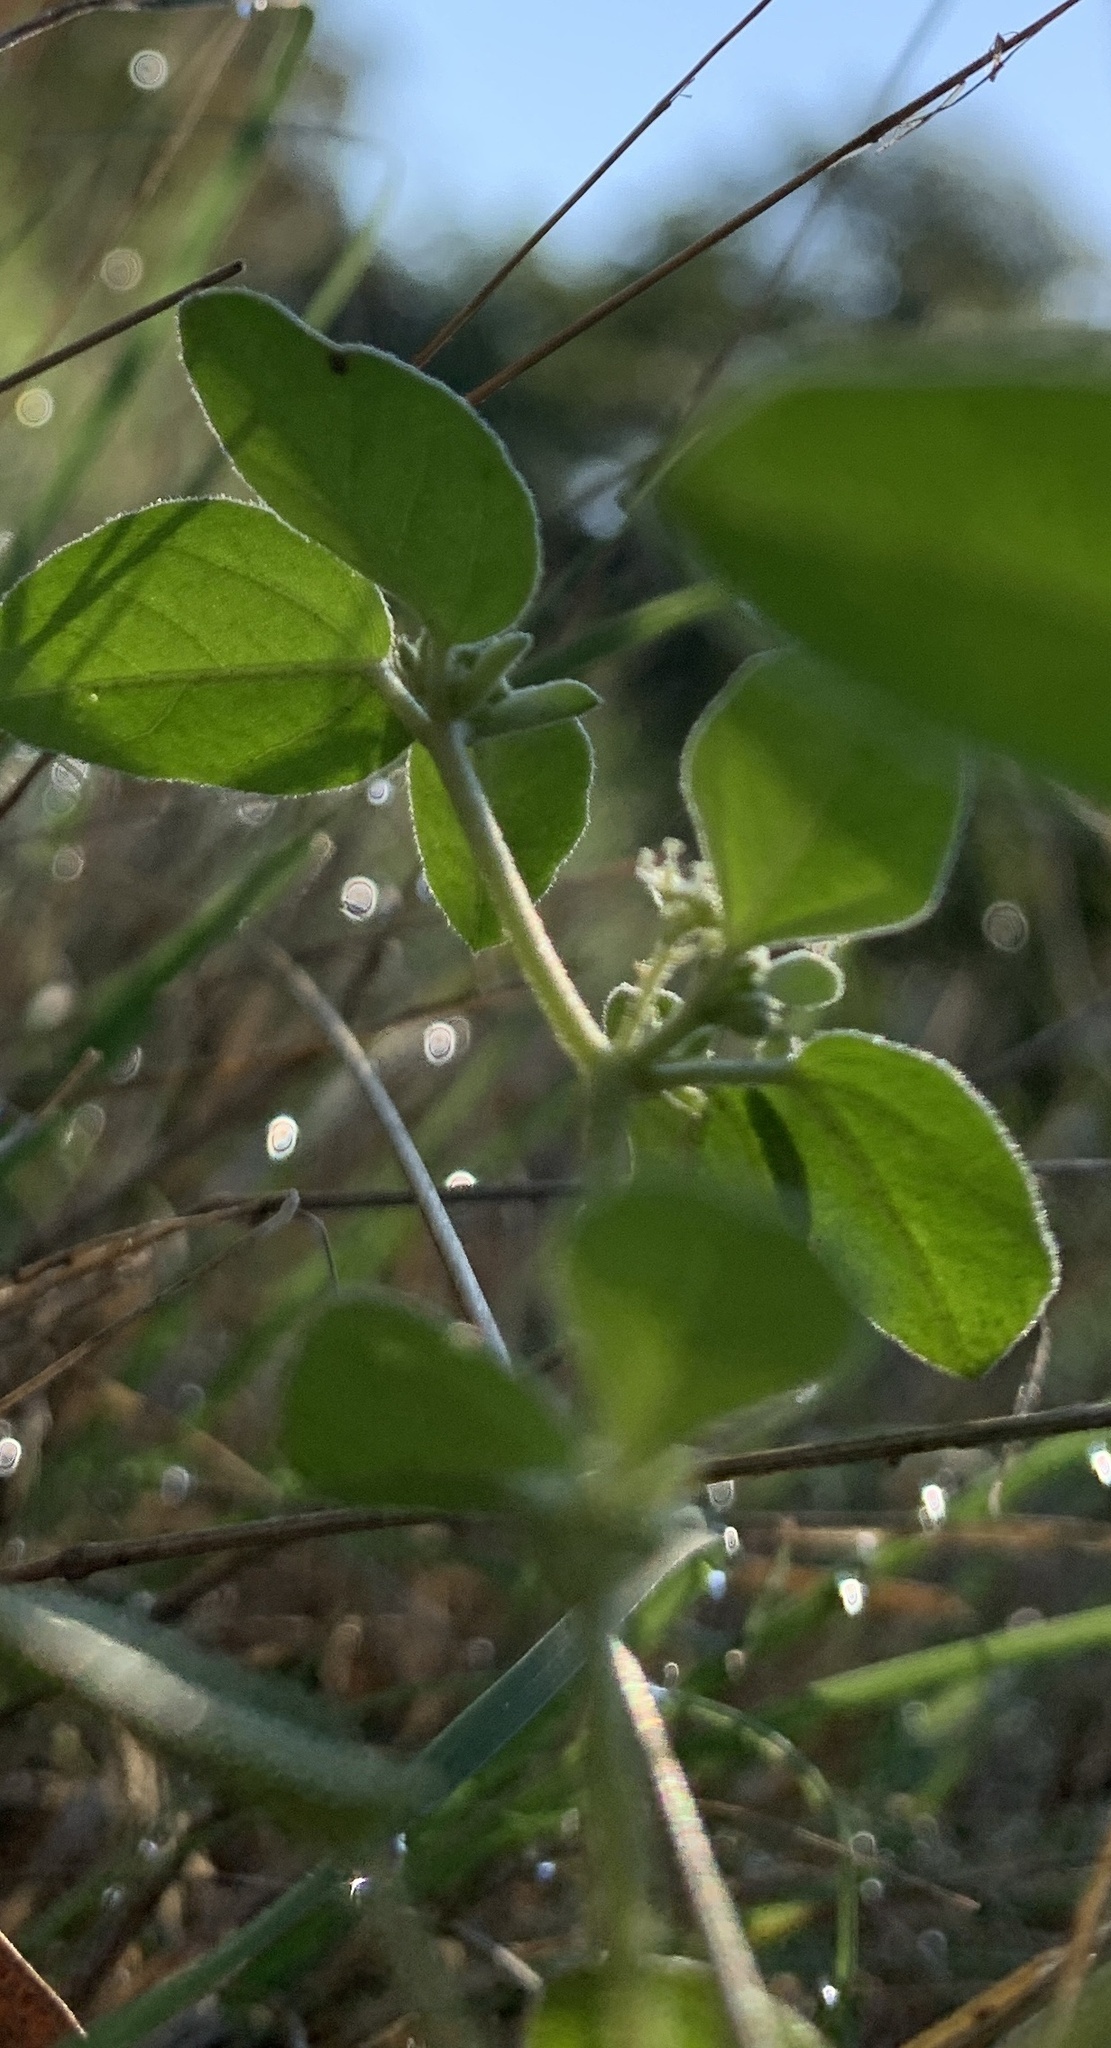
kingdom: Plantae
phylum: Tracheophyta
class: Magnoliopsida
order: Malpighiales
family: Euphorbiaceae
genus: Croton
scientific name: Croton monanthogynus
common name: One-seed croton
